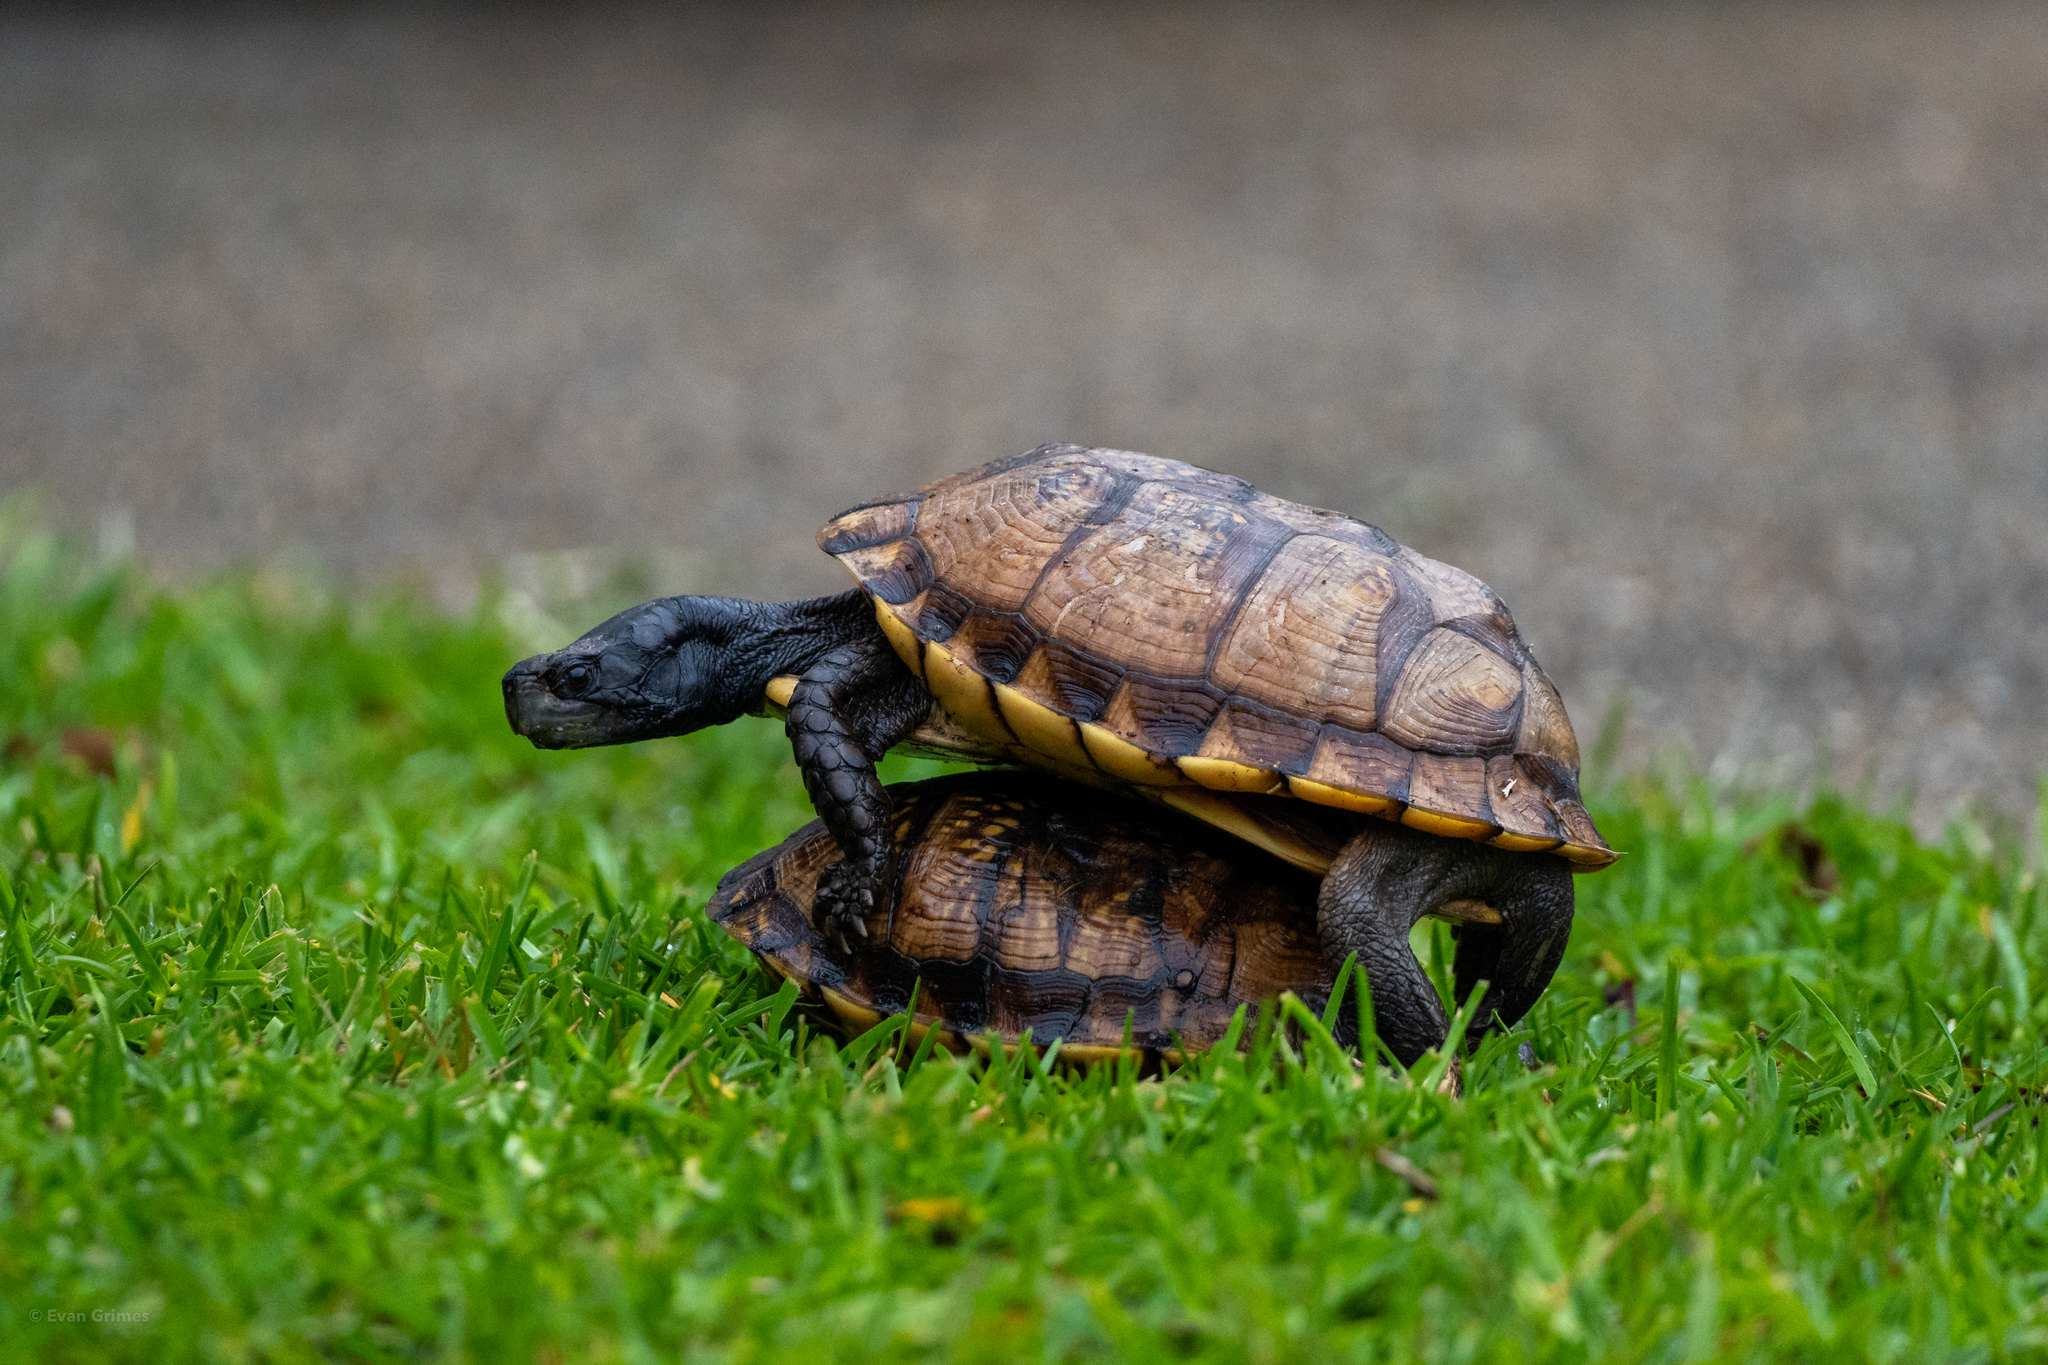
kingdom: Animalia
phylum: Chordata
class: Testudines
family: Emydidae
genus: Terrapene
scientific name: Terrapene carolina
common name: Common box turtle
